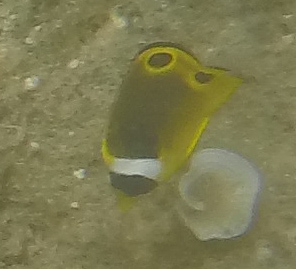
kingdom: Animalia
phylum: Chordata
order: Perciformes
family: Chaetodontidae
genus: Chaetodon
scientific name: Chaetodon lunula
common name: Raccoon butterflyfish
